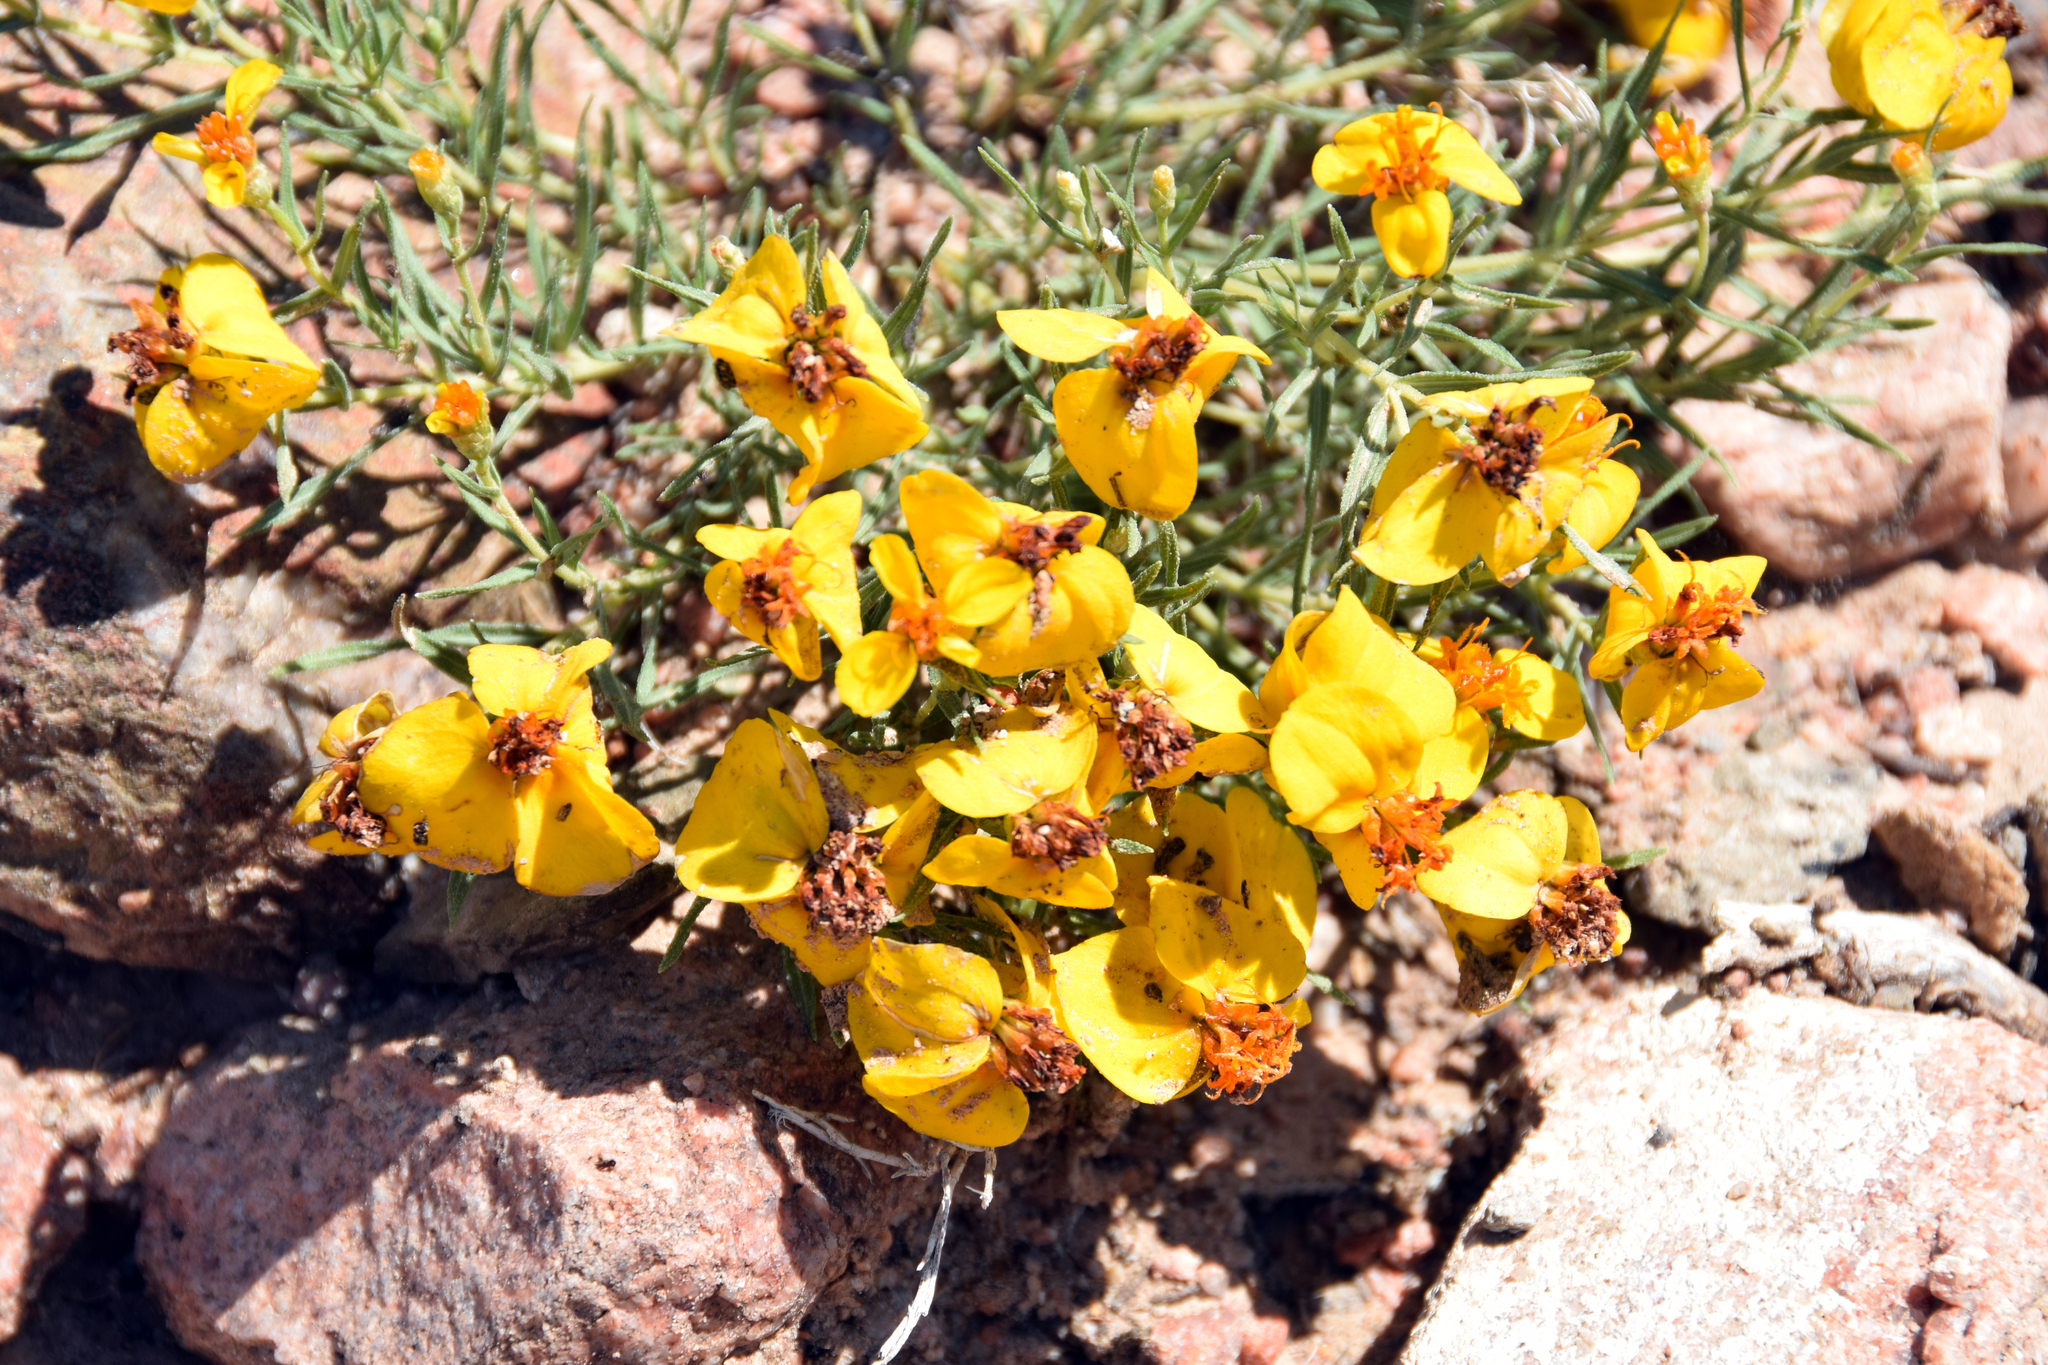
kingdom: Plantae
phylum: Tracheophyta
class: Magnoliopsida
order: Asterales
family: Asteraceae
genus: Zinnia
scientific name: Zinnia grandiflora
